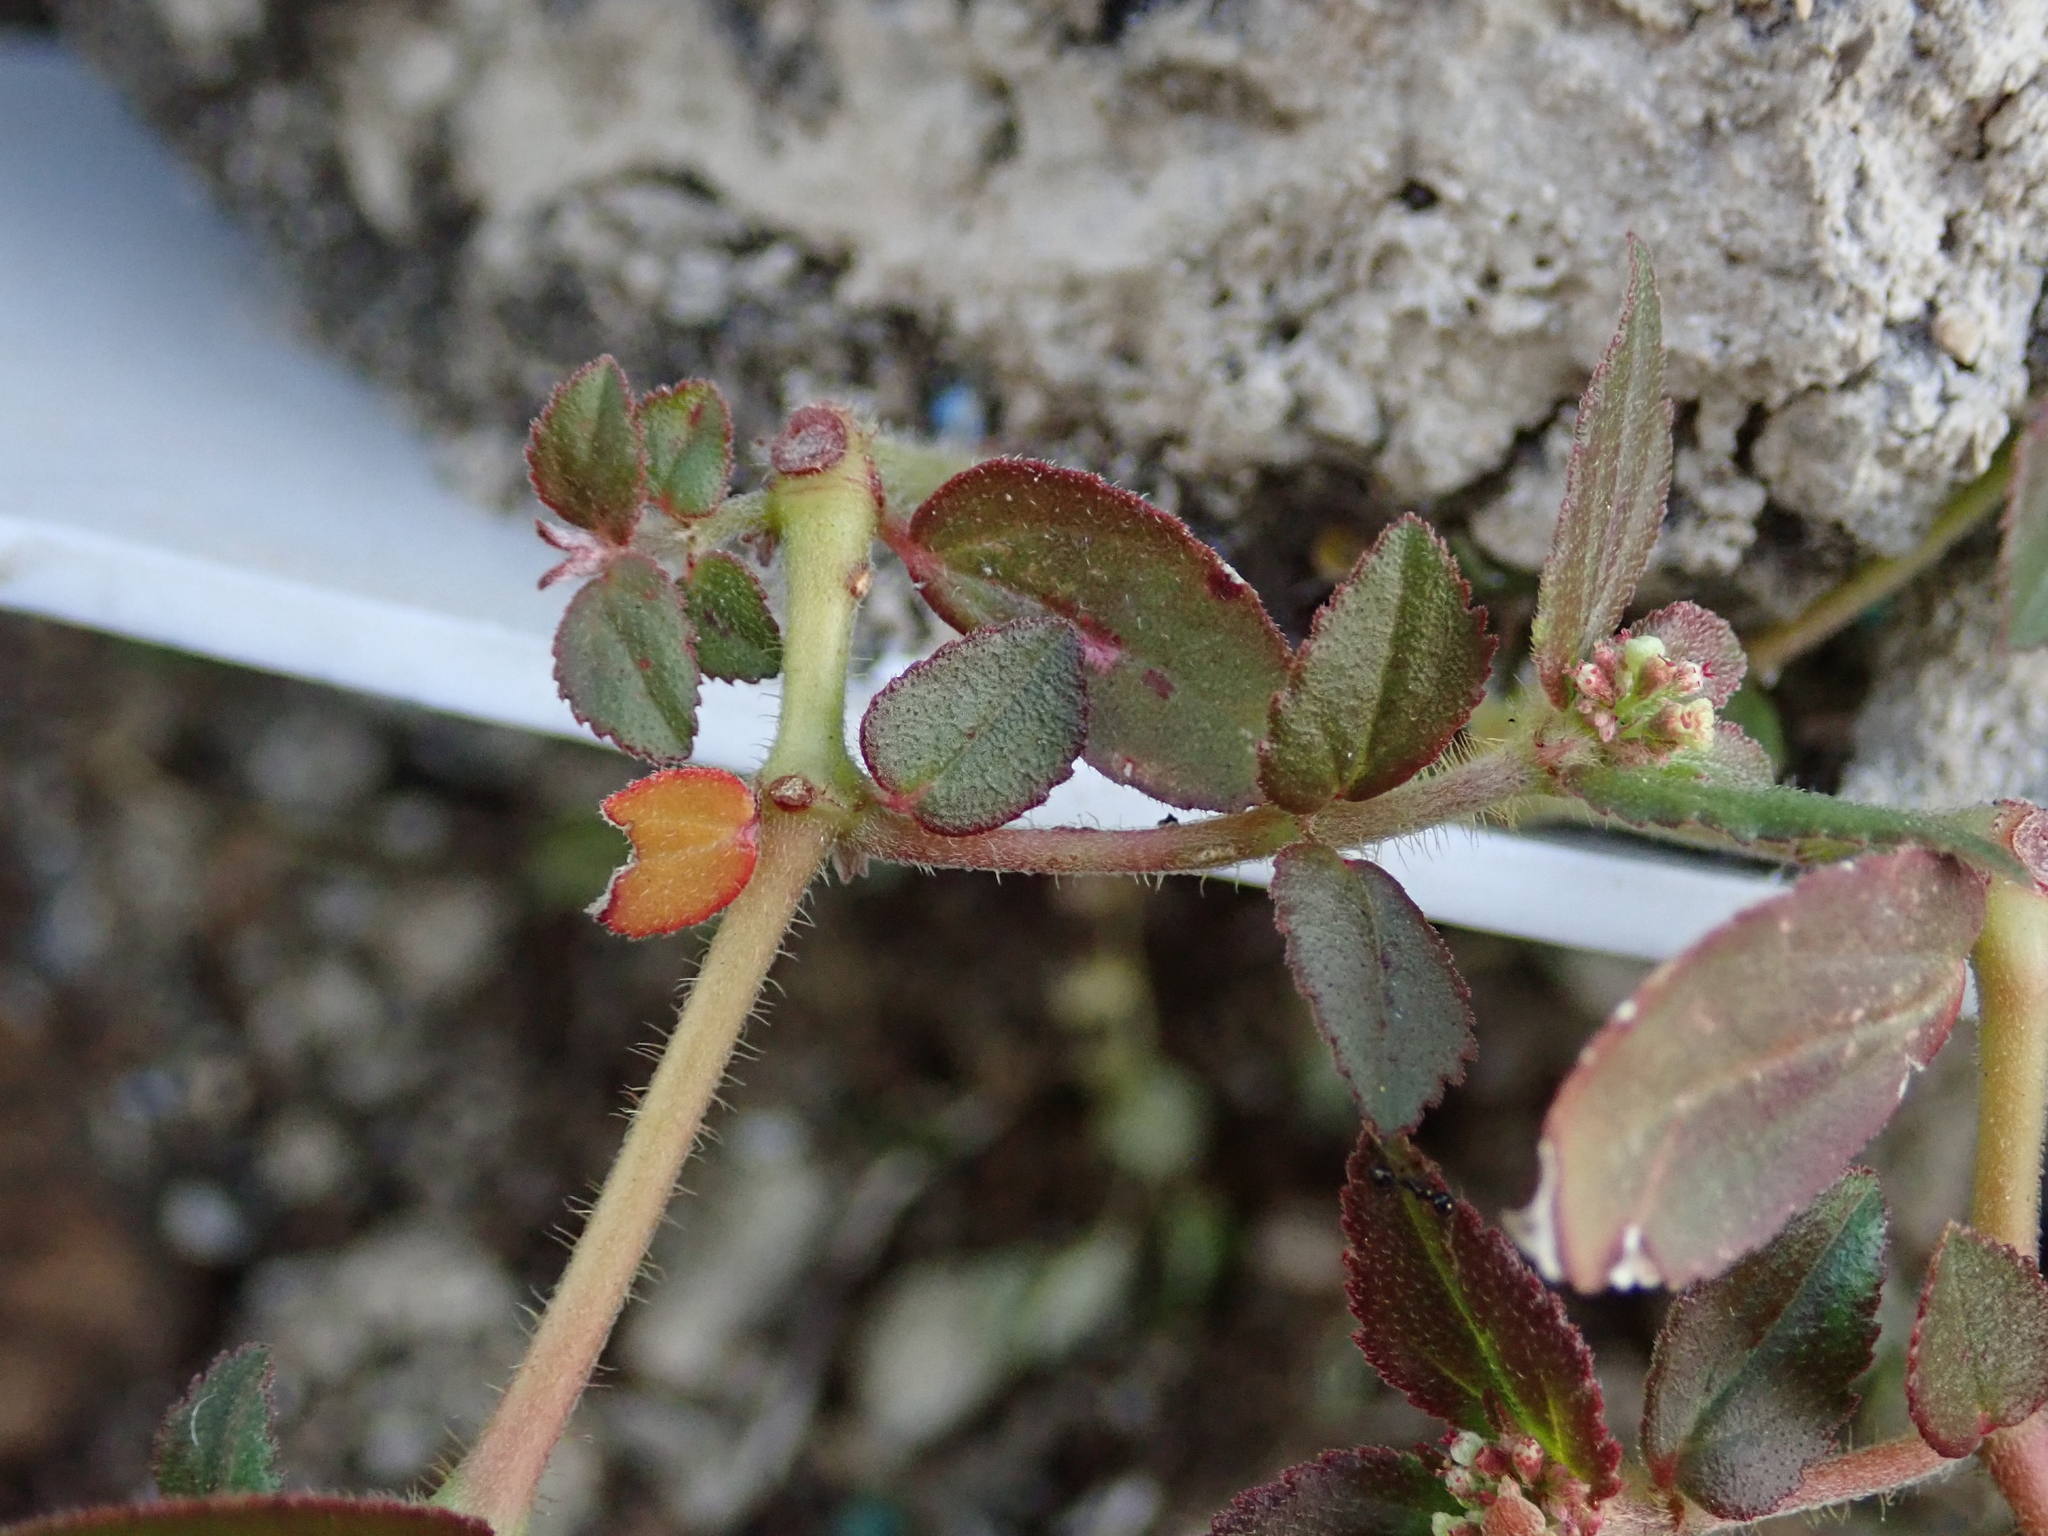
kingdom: Plantae
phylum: Tracheophyta
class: Magnoliopsida
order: Malpighiales
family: Euphorbiaceae
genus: Euphorbia
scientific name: Euphorbia hirta
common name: Pillpod sandmat
